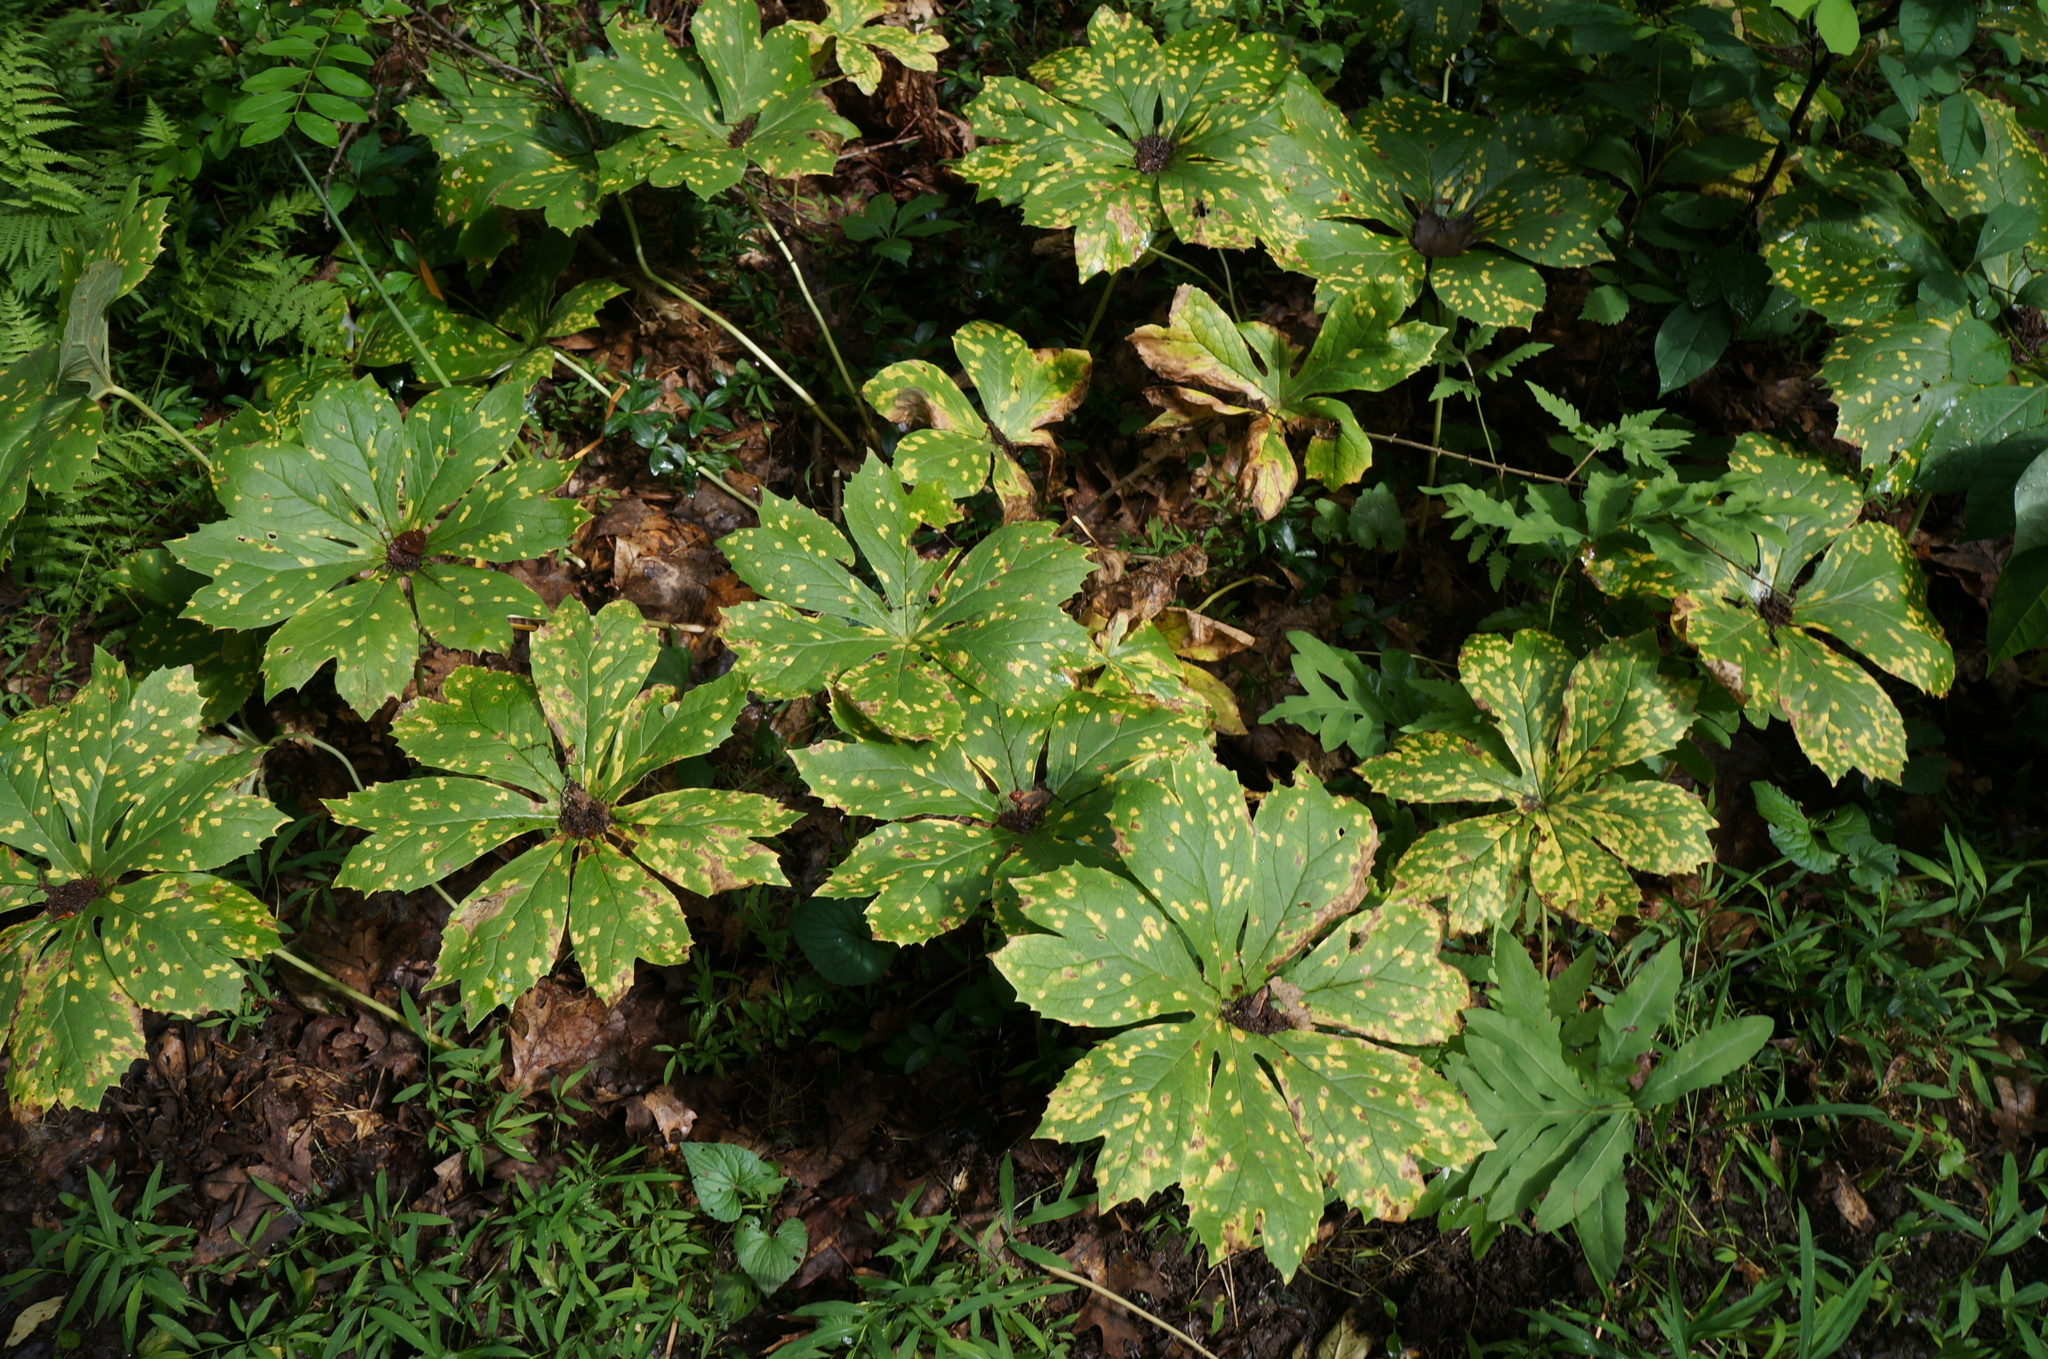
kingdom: Plantae
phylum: Tracheophyta
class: Magnoliopsida
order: Ranunculales
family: Berberidaceae
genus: Podophyllum
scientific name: Podophyllum peltatum
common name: Wild mandrake
